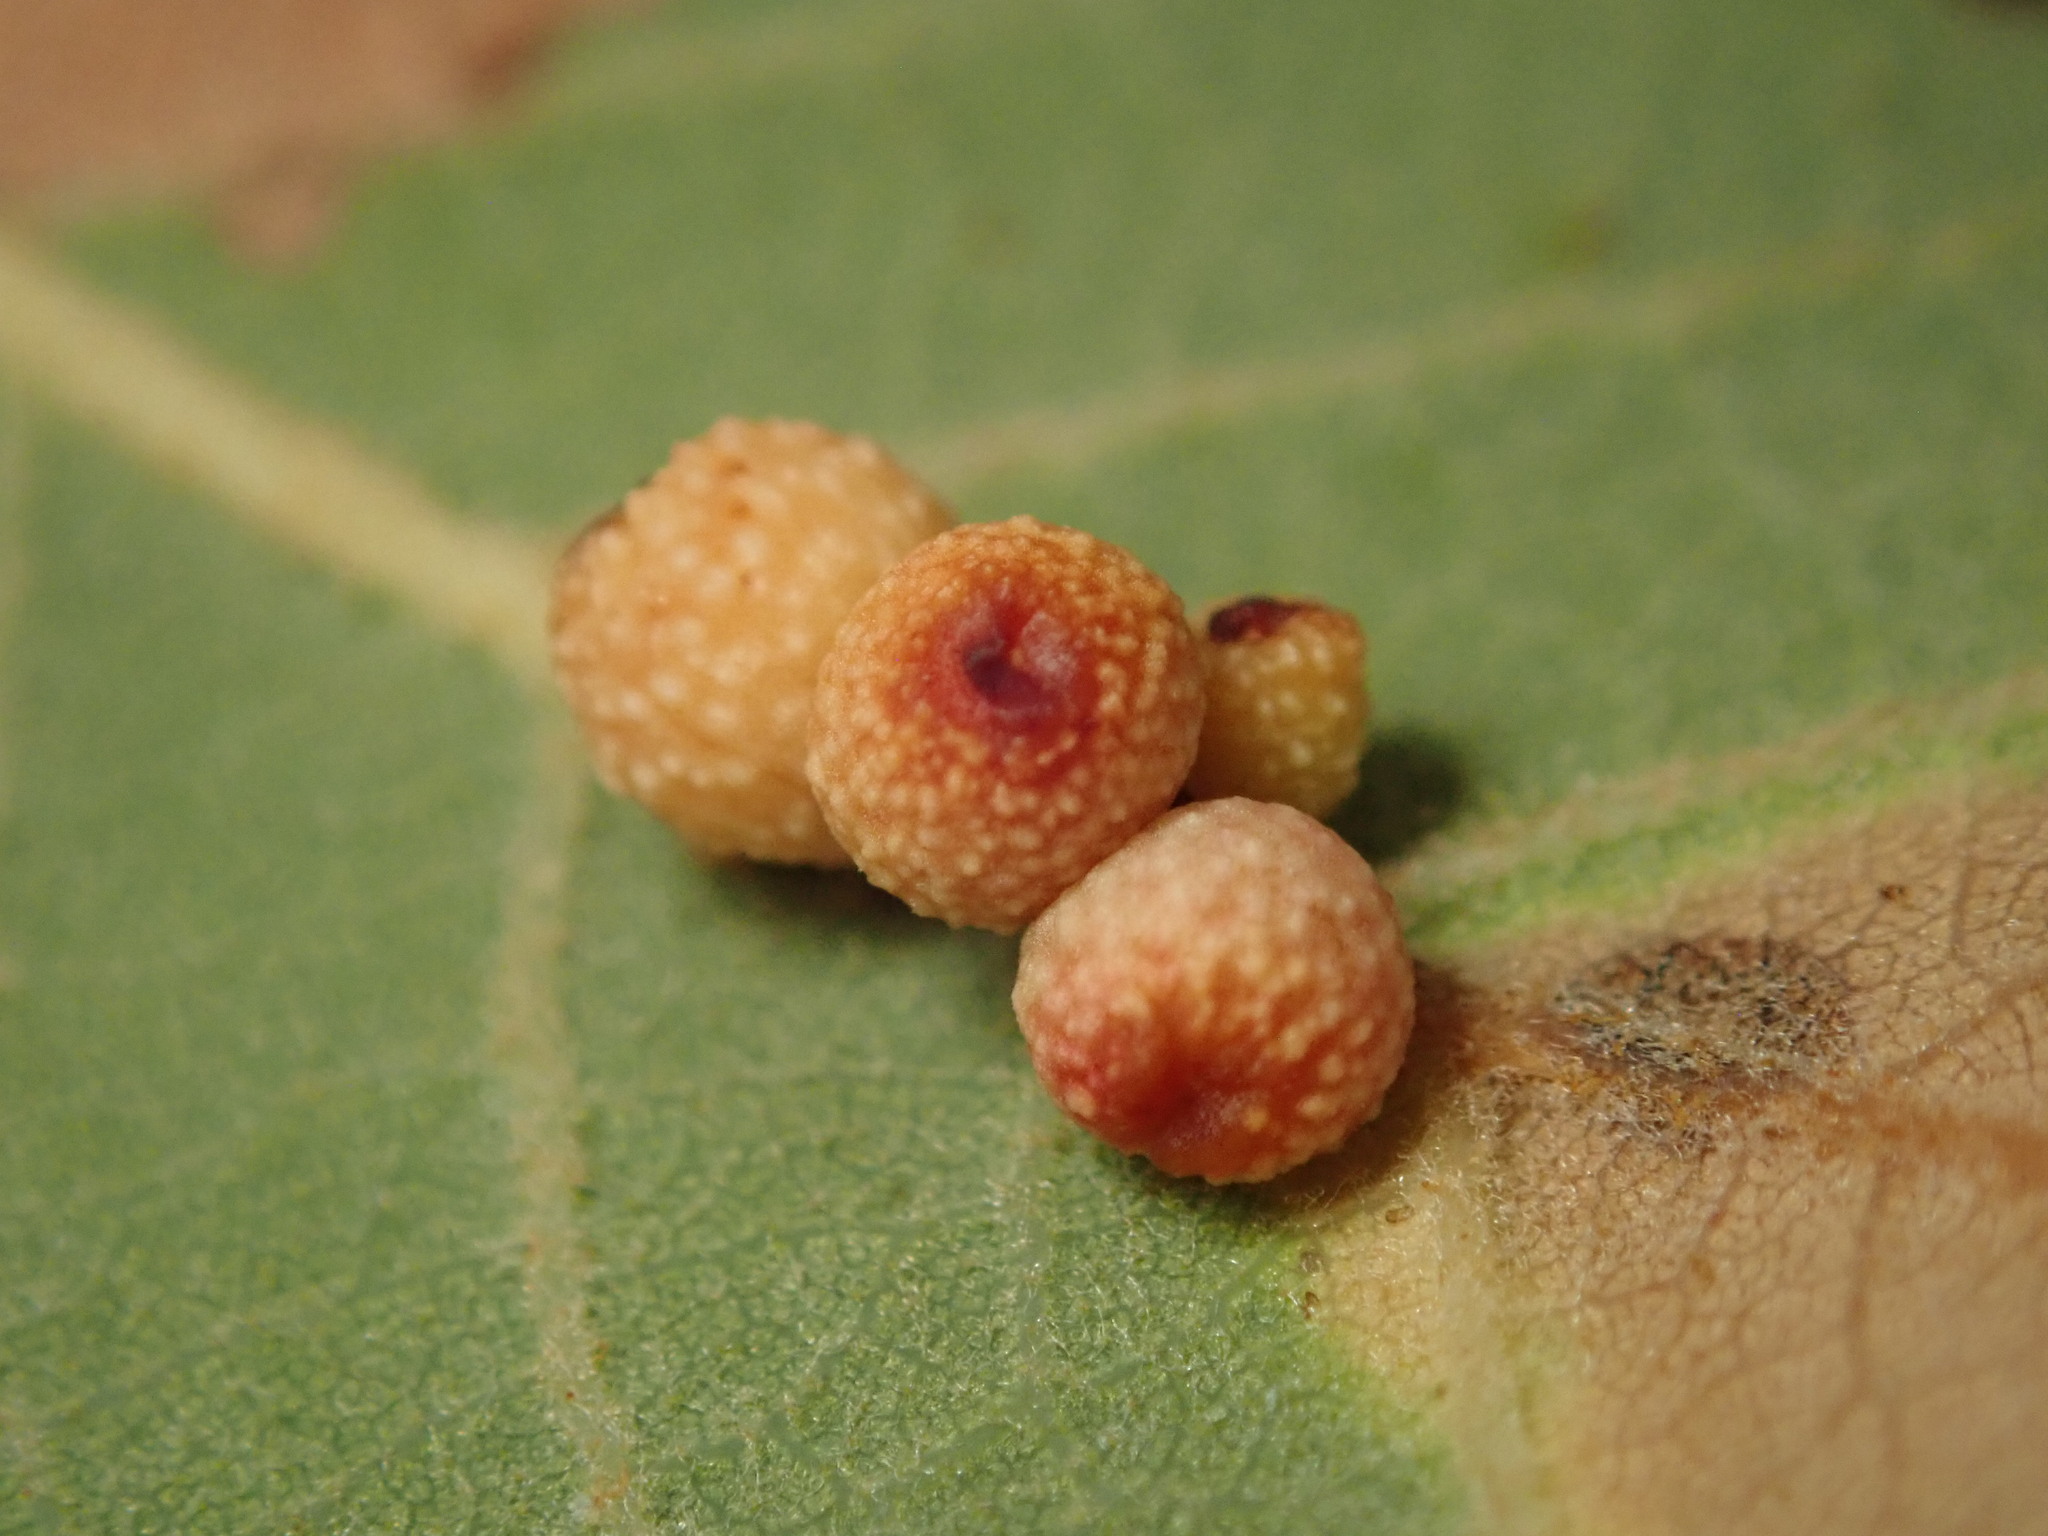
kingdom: Animalia
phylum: Arthropoda
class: Insecta
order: Hymenoptera
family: Cynipidae
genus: Callirhytis
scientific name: Callirhytis
